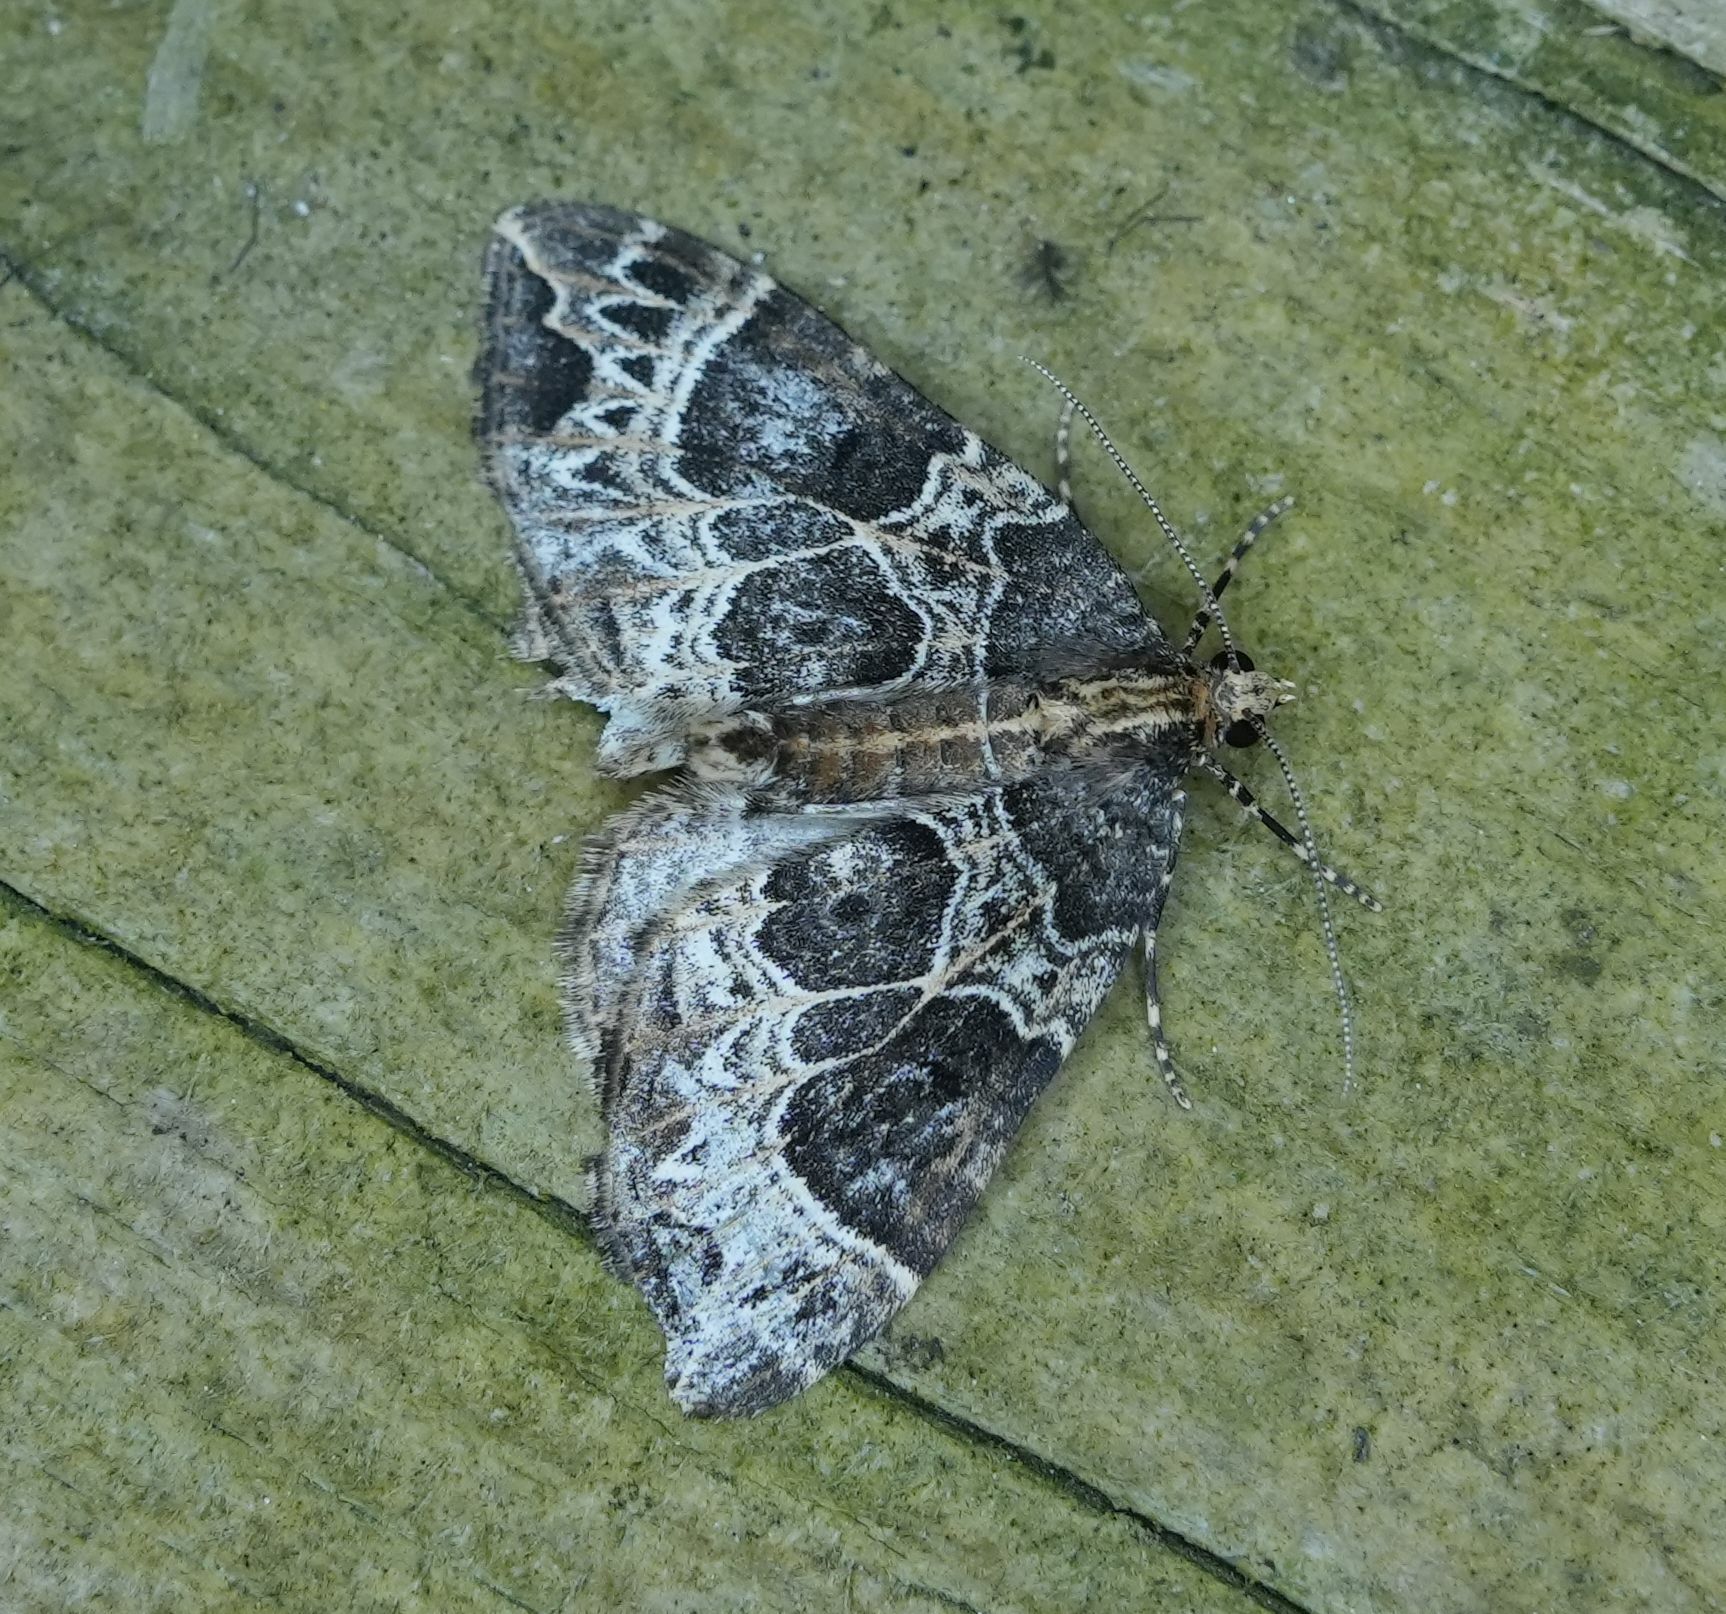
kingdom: Animalia
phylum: Arthropoda
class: Insecta
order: Lepidoptera
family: Geometridae
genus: Ecliptopera
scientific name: Ecliptopera silaceata
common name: Small phoenix
